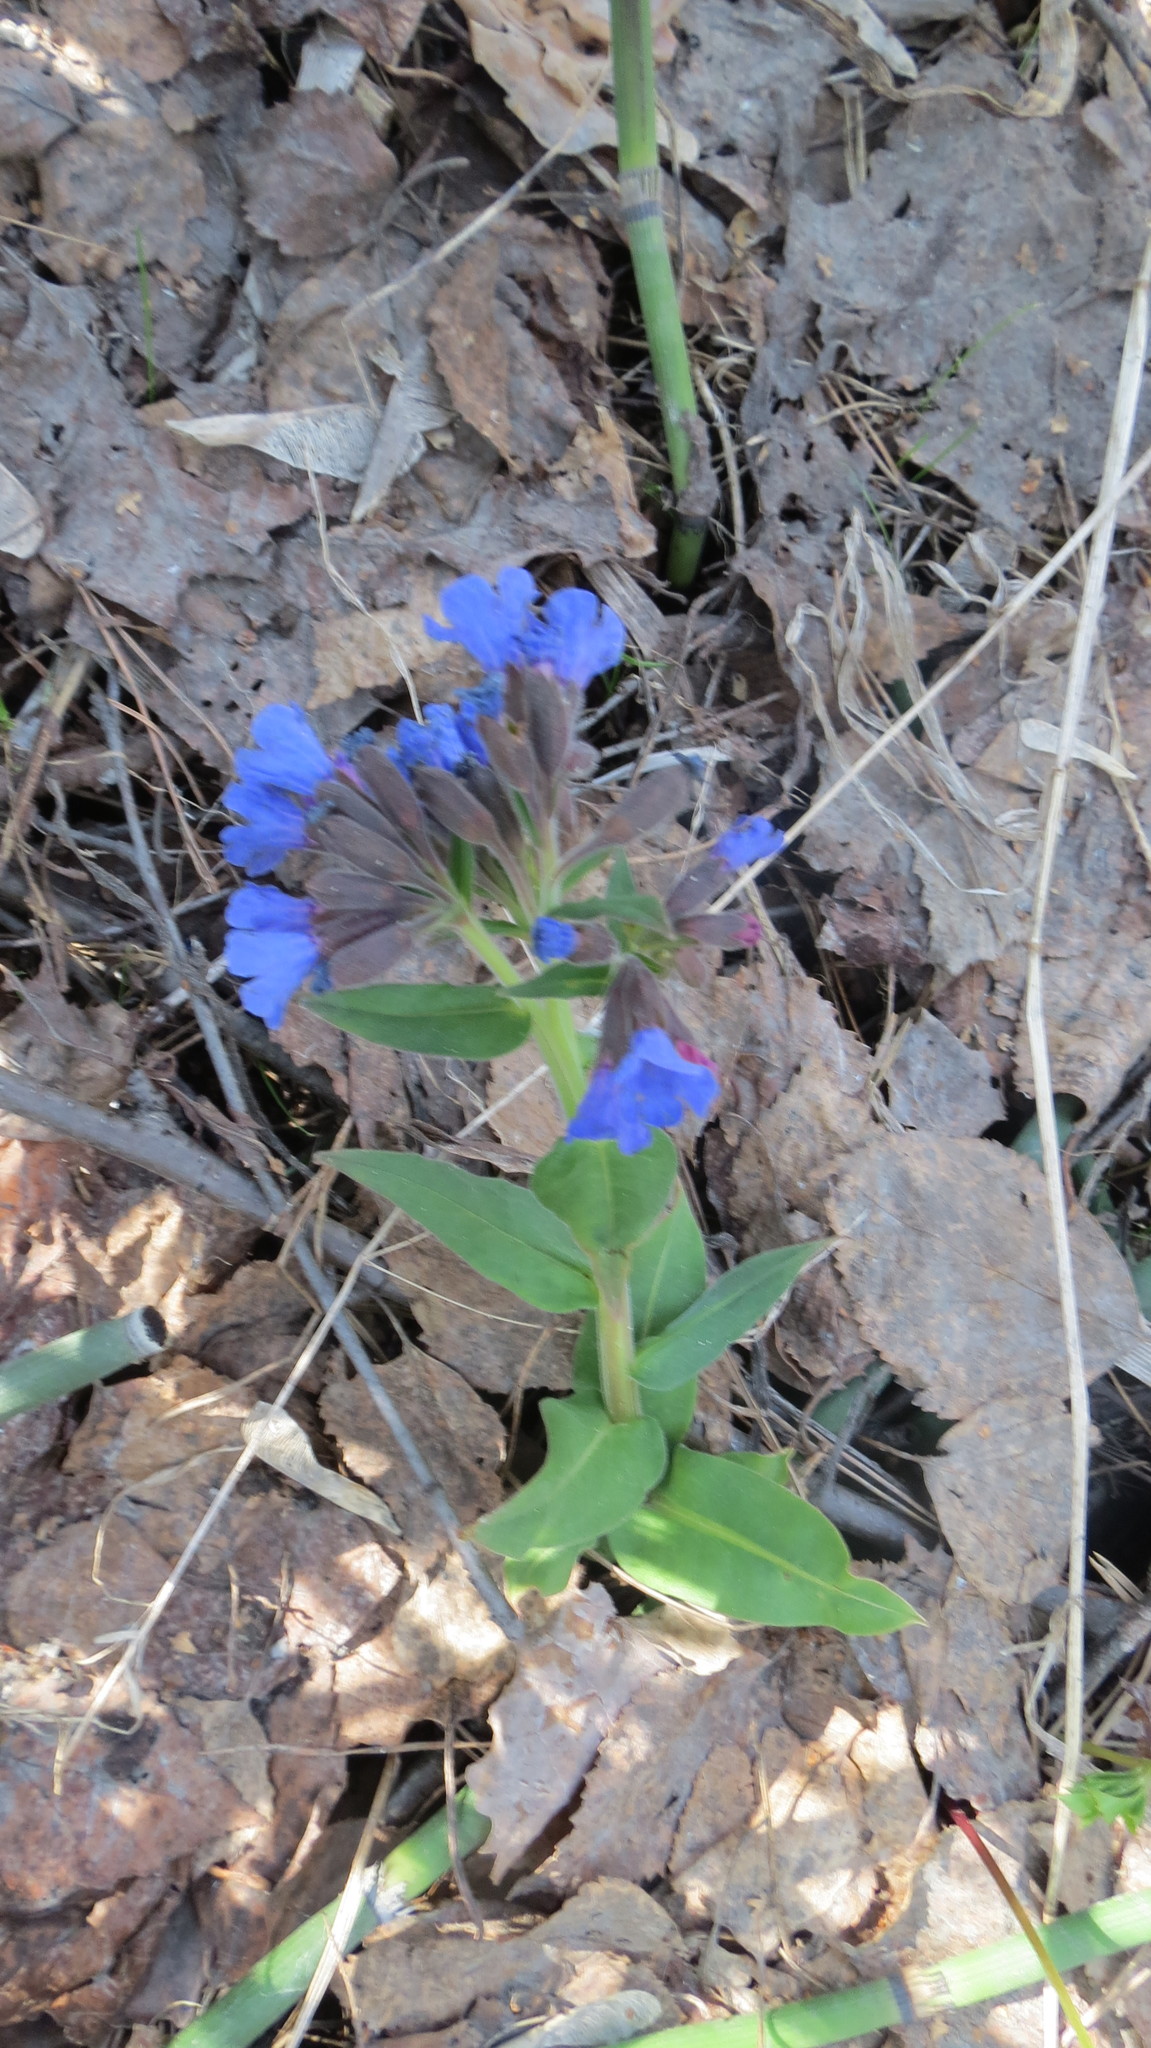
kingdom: Plantae
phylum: Tracheophyta
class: Magnoliopsida
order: Boraginales
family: Boraginaceae
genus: Pulmonaria
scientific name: Pulmonaria mollis
